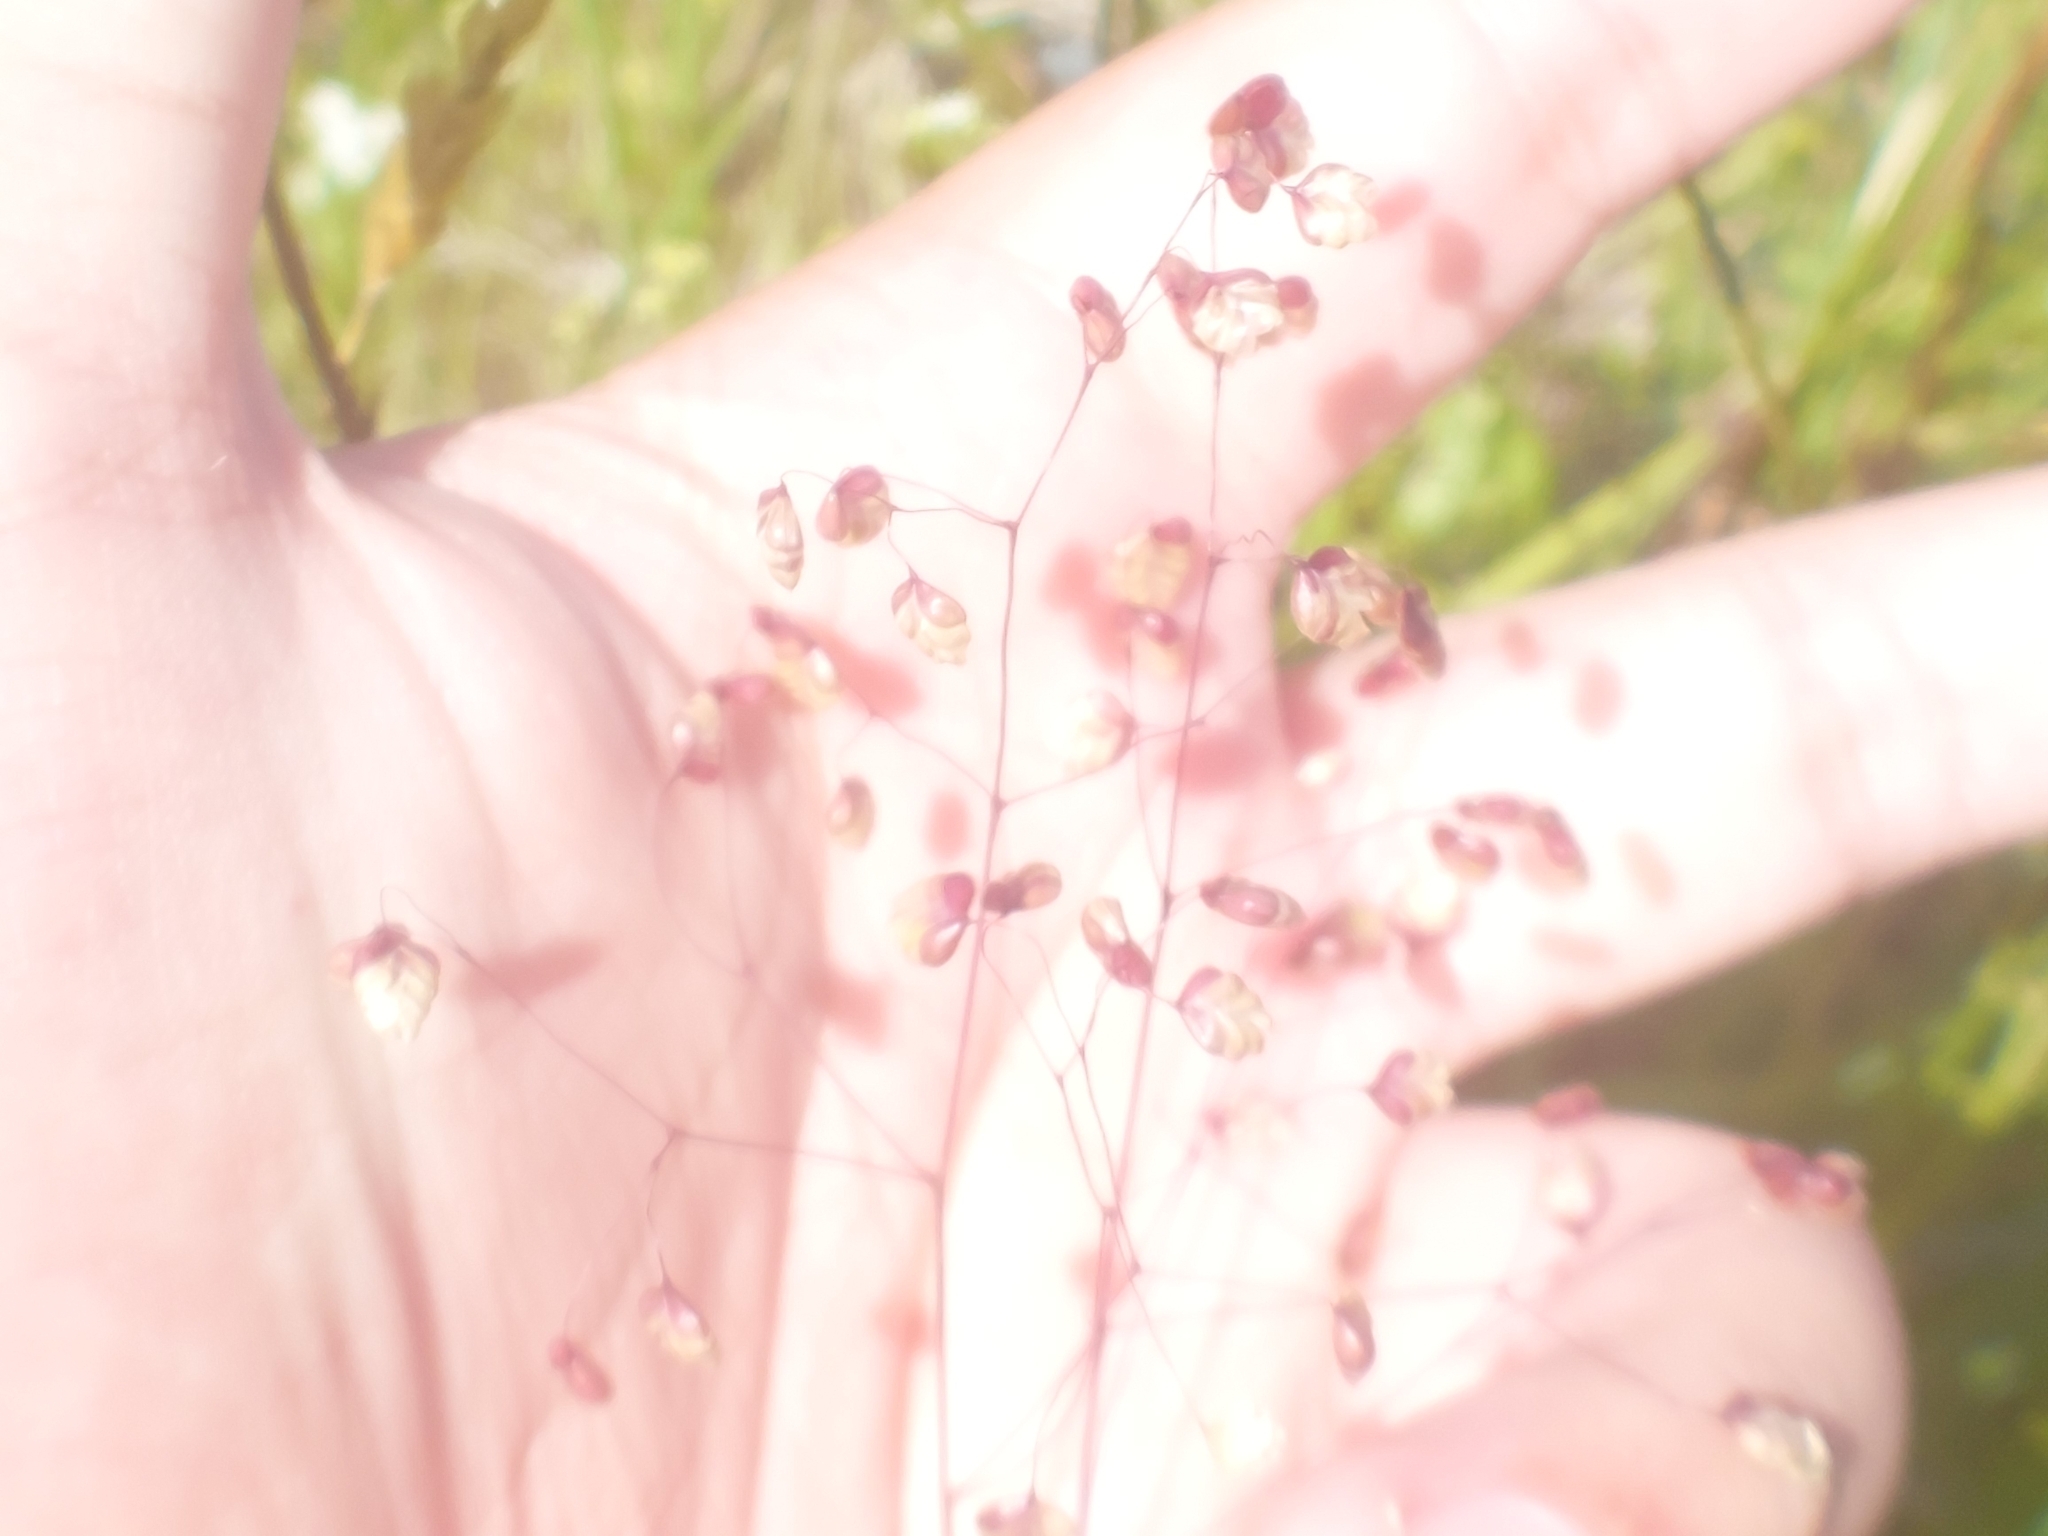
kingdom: Plantae
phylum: Tracheophyta
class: Liliopsida
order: Poales
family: Poaceae
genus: Briza
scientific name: Briza media
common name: Quaking grass
